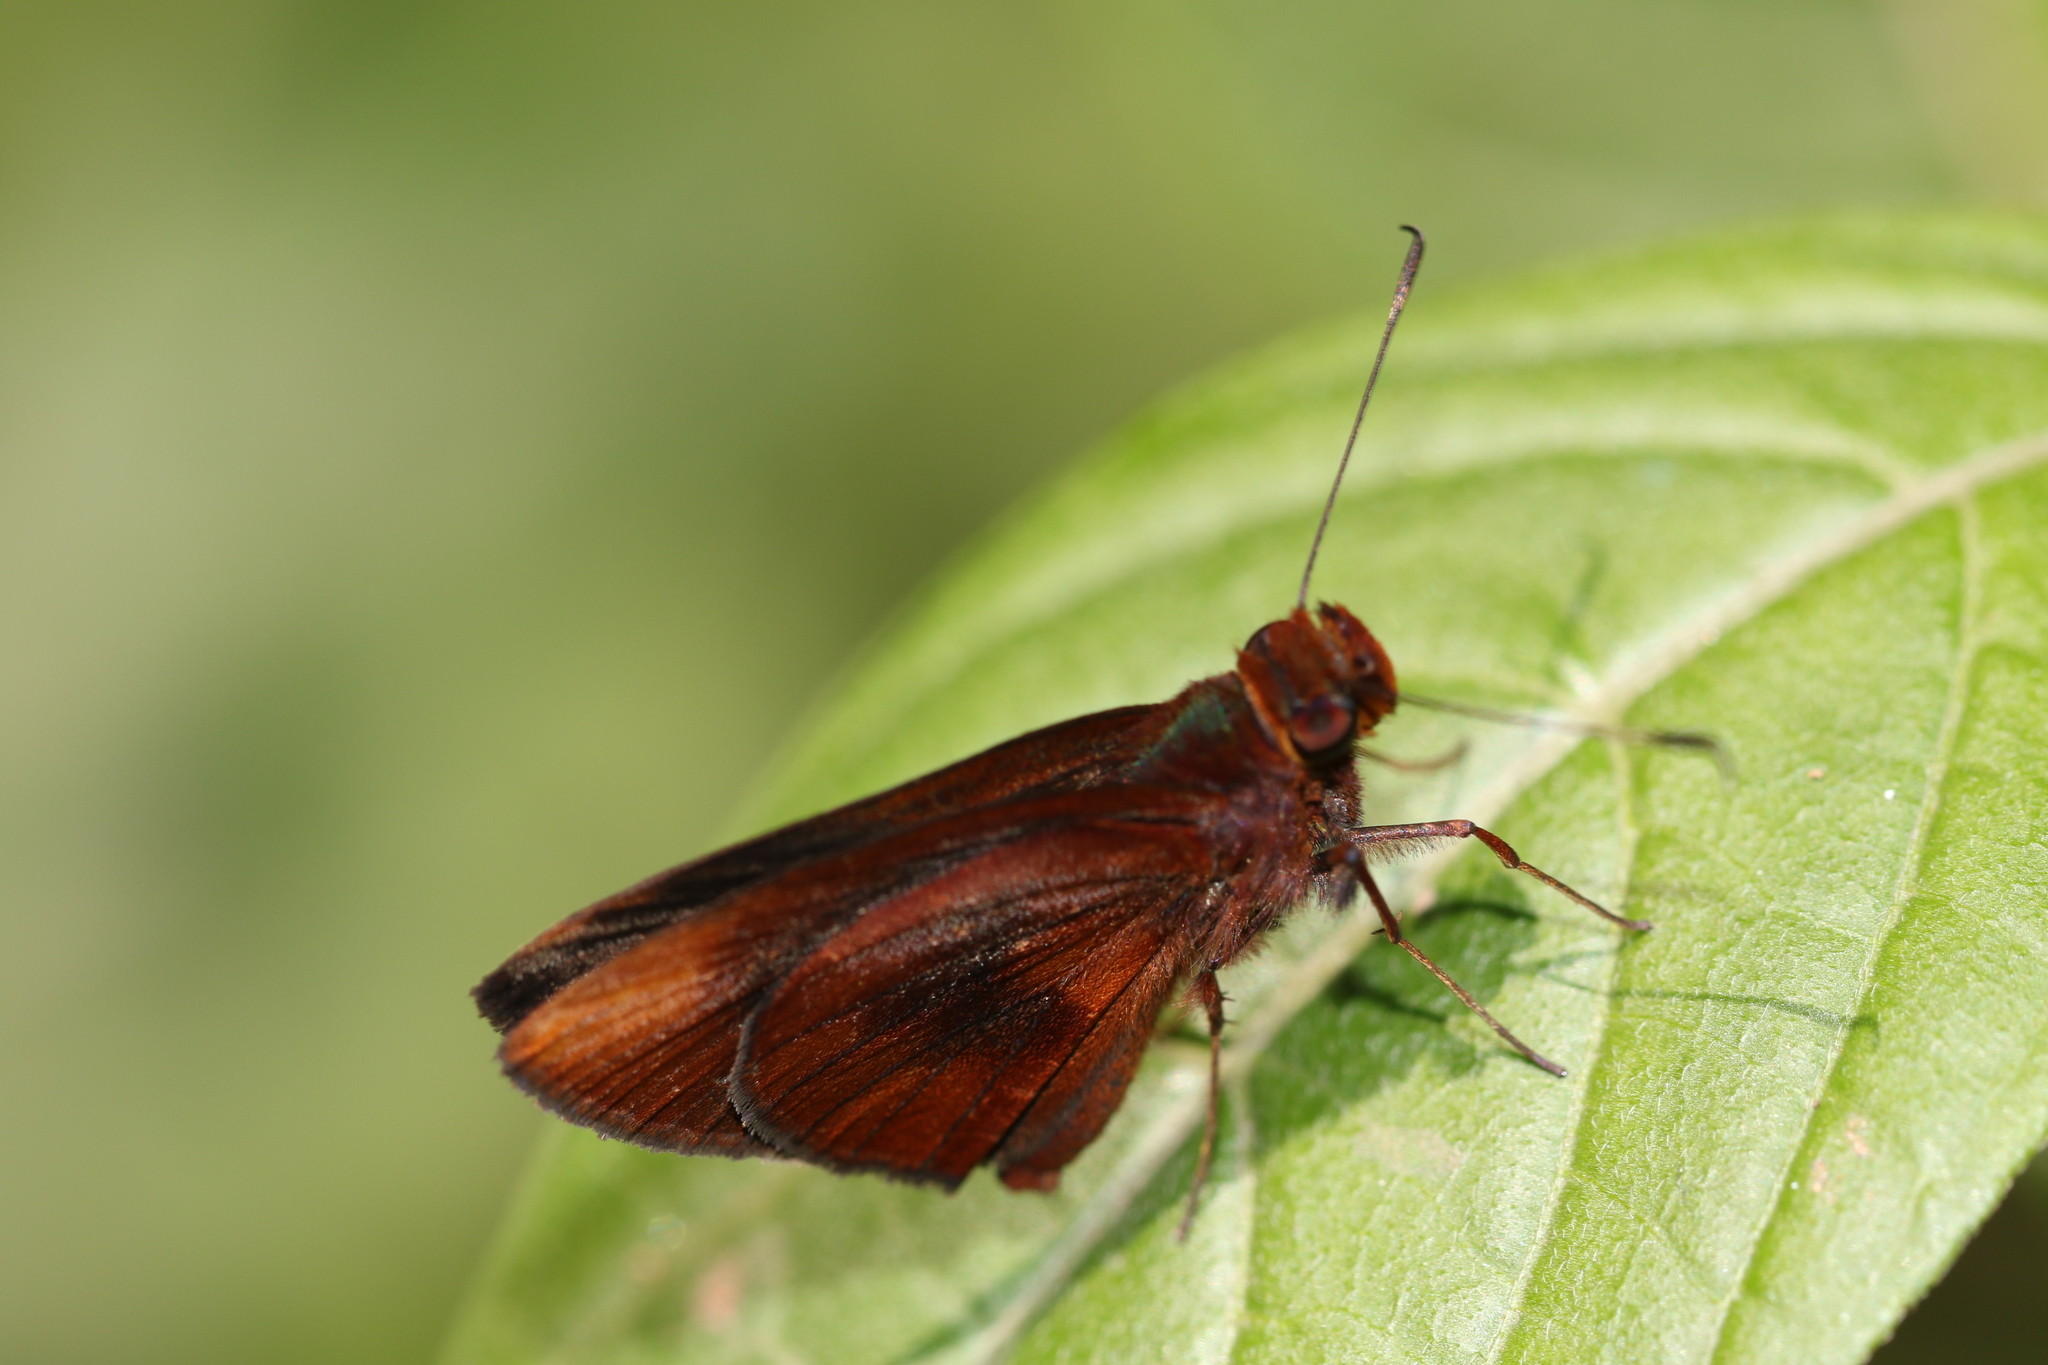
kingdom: Animalia
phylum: Arthropoda
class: Insecta
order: Lepidoptera
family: Hesperiidae
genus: Miltomiges
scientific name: Miltomiges cinnamomea
